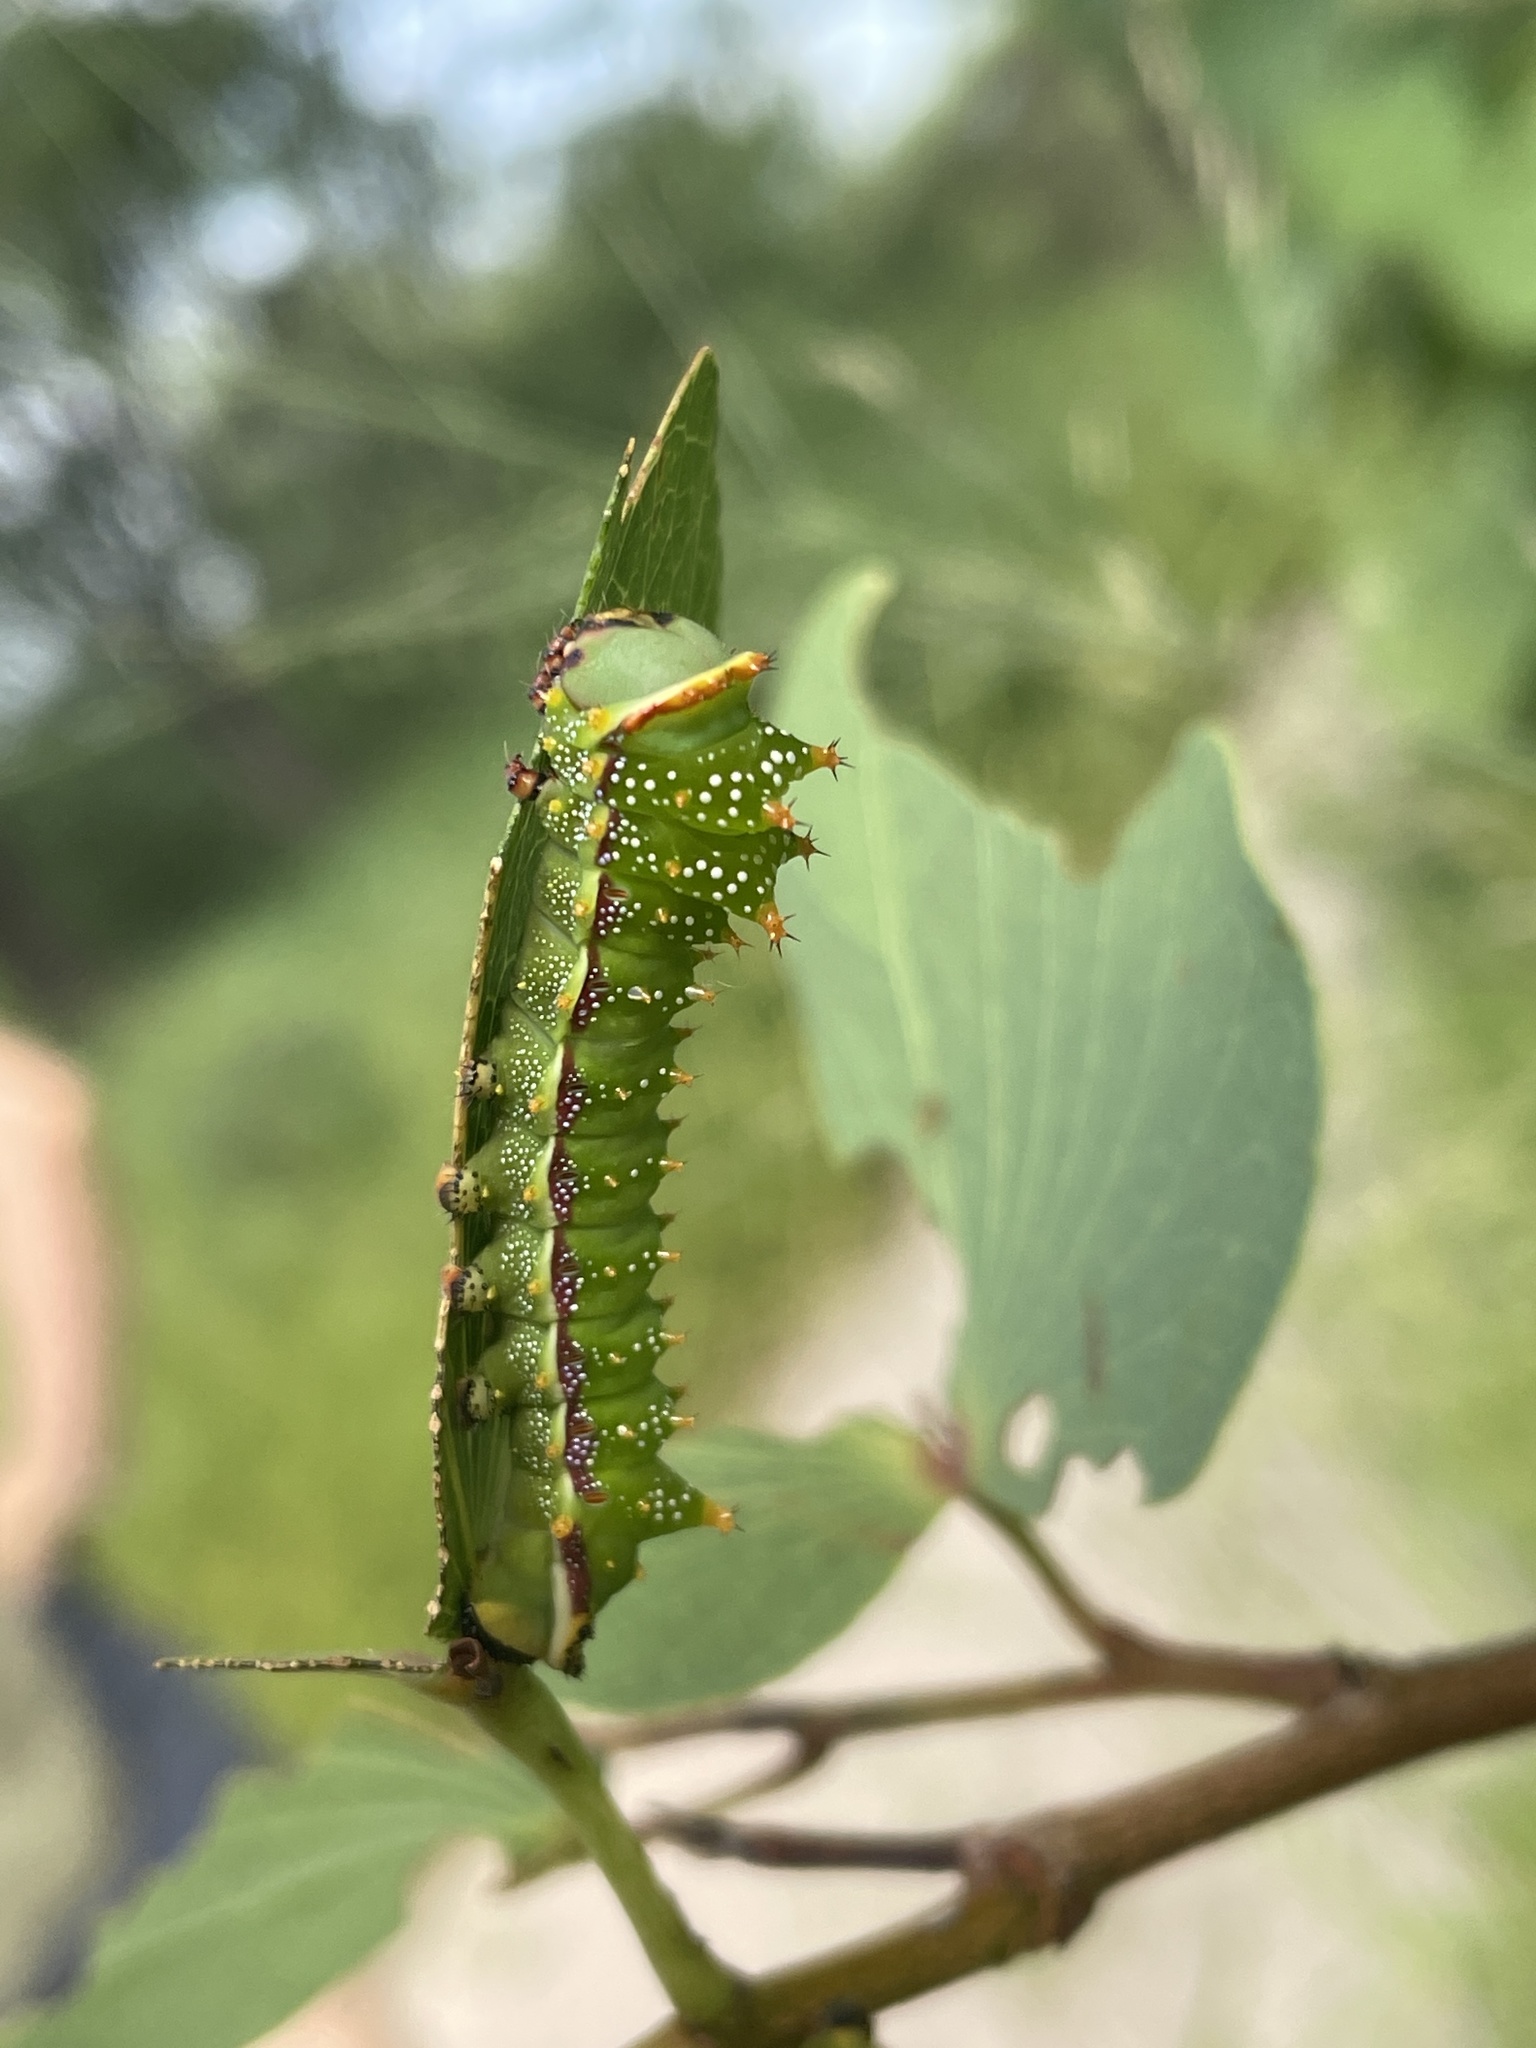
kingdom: Animalia
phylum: Arthropoda
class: Insecta
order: Lepidoptera
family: Saturniidae
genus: Gynanisa
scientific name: Gynanisa maja
